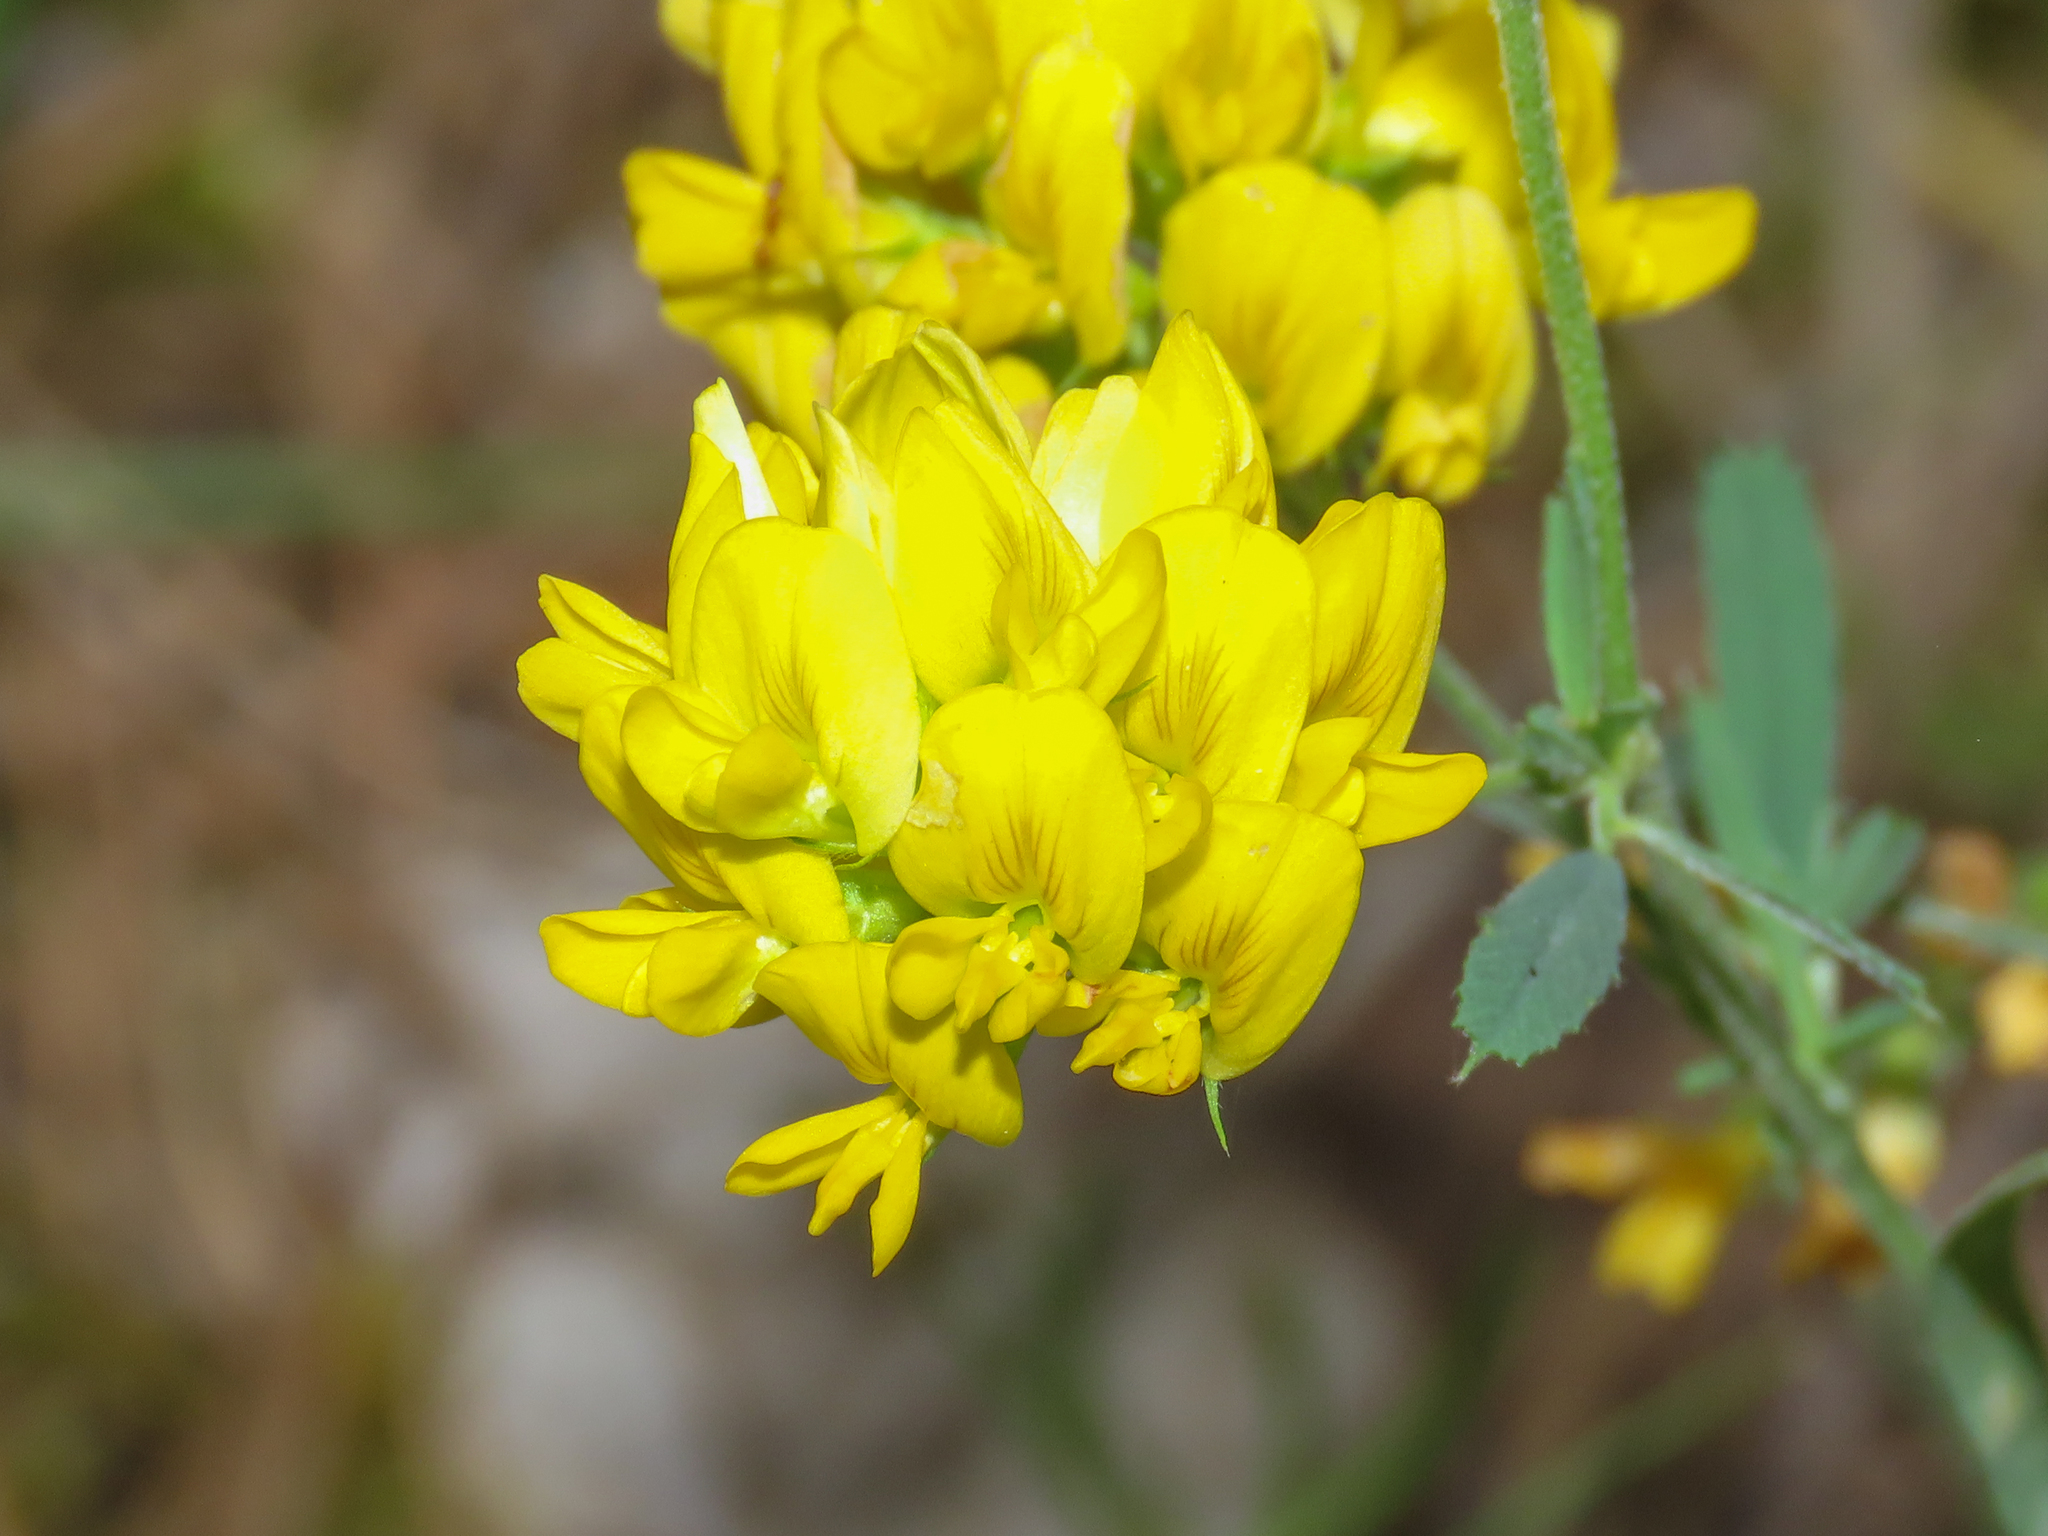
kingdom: Plantae
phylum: Tracheophyta
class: Magnoliopsida
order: Fabales
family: Fabaceae
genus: Medicago
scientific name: Medicago falcata
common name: Sickle medick
